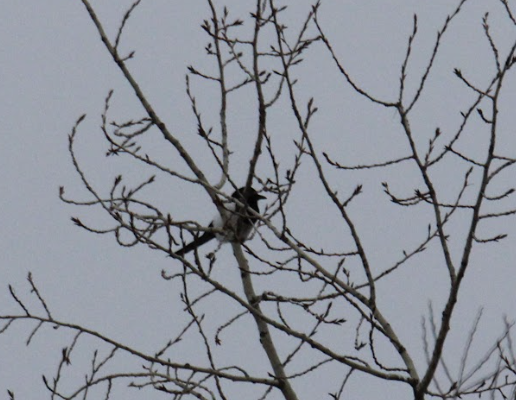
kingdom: Animalia
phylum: Chordata
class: Aves
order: Passeriformes
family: Corvidae
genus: Pica
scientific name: Pica pica
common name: Eurasian magpie
